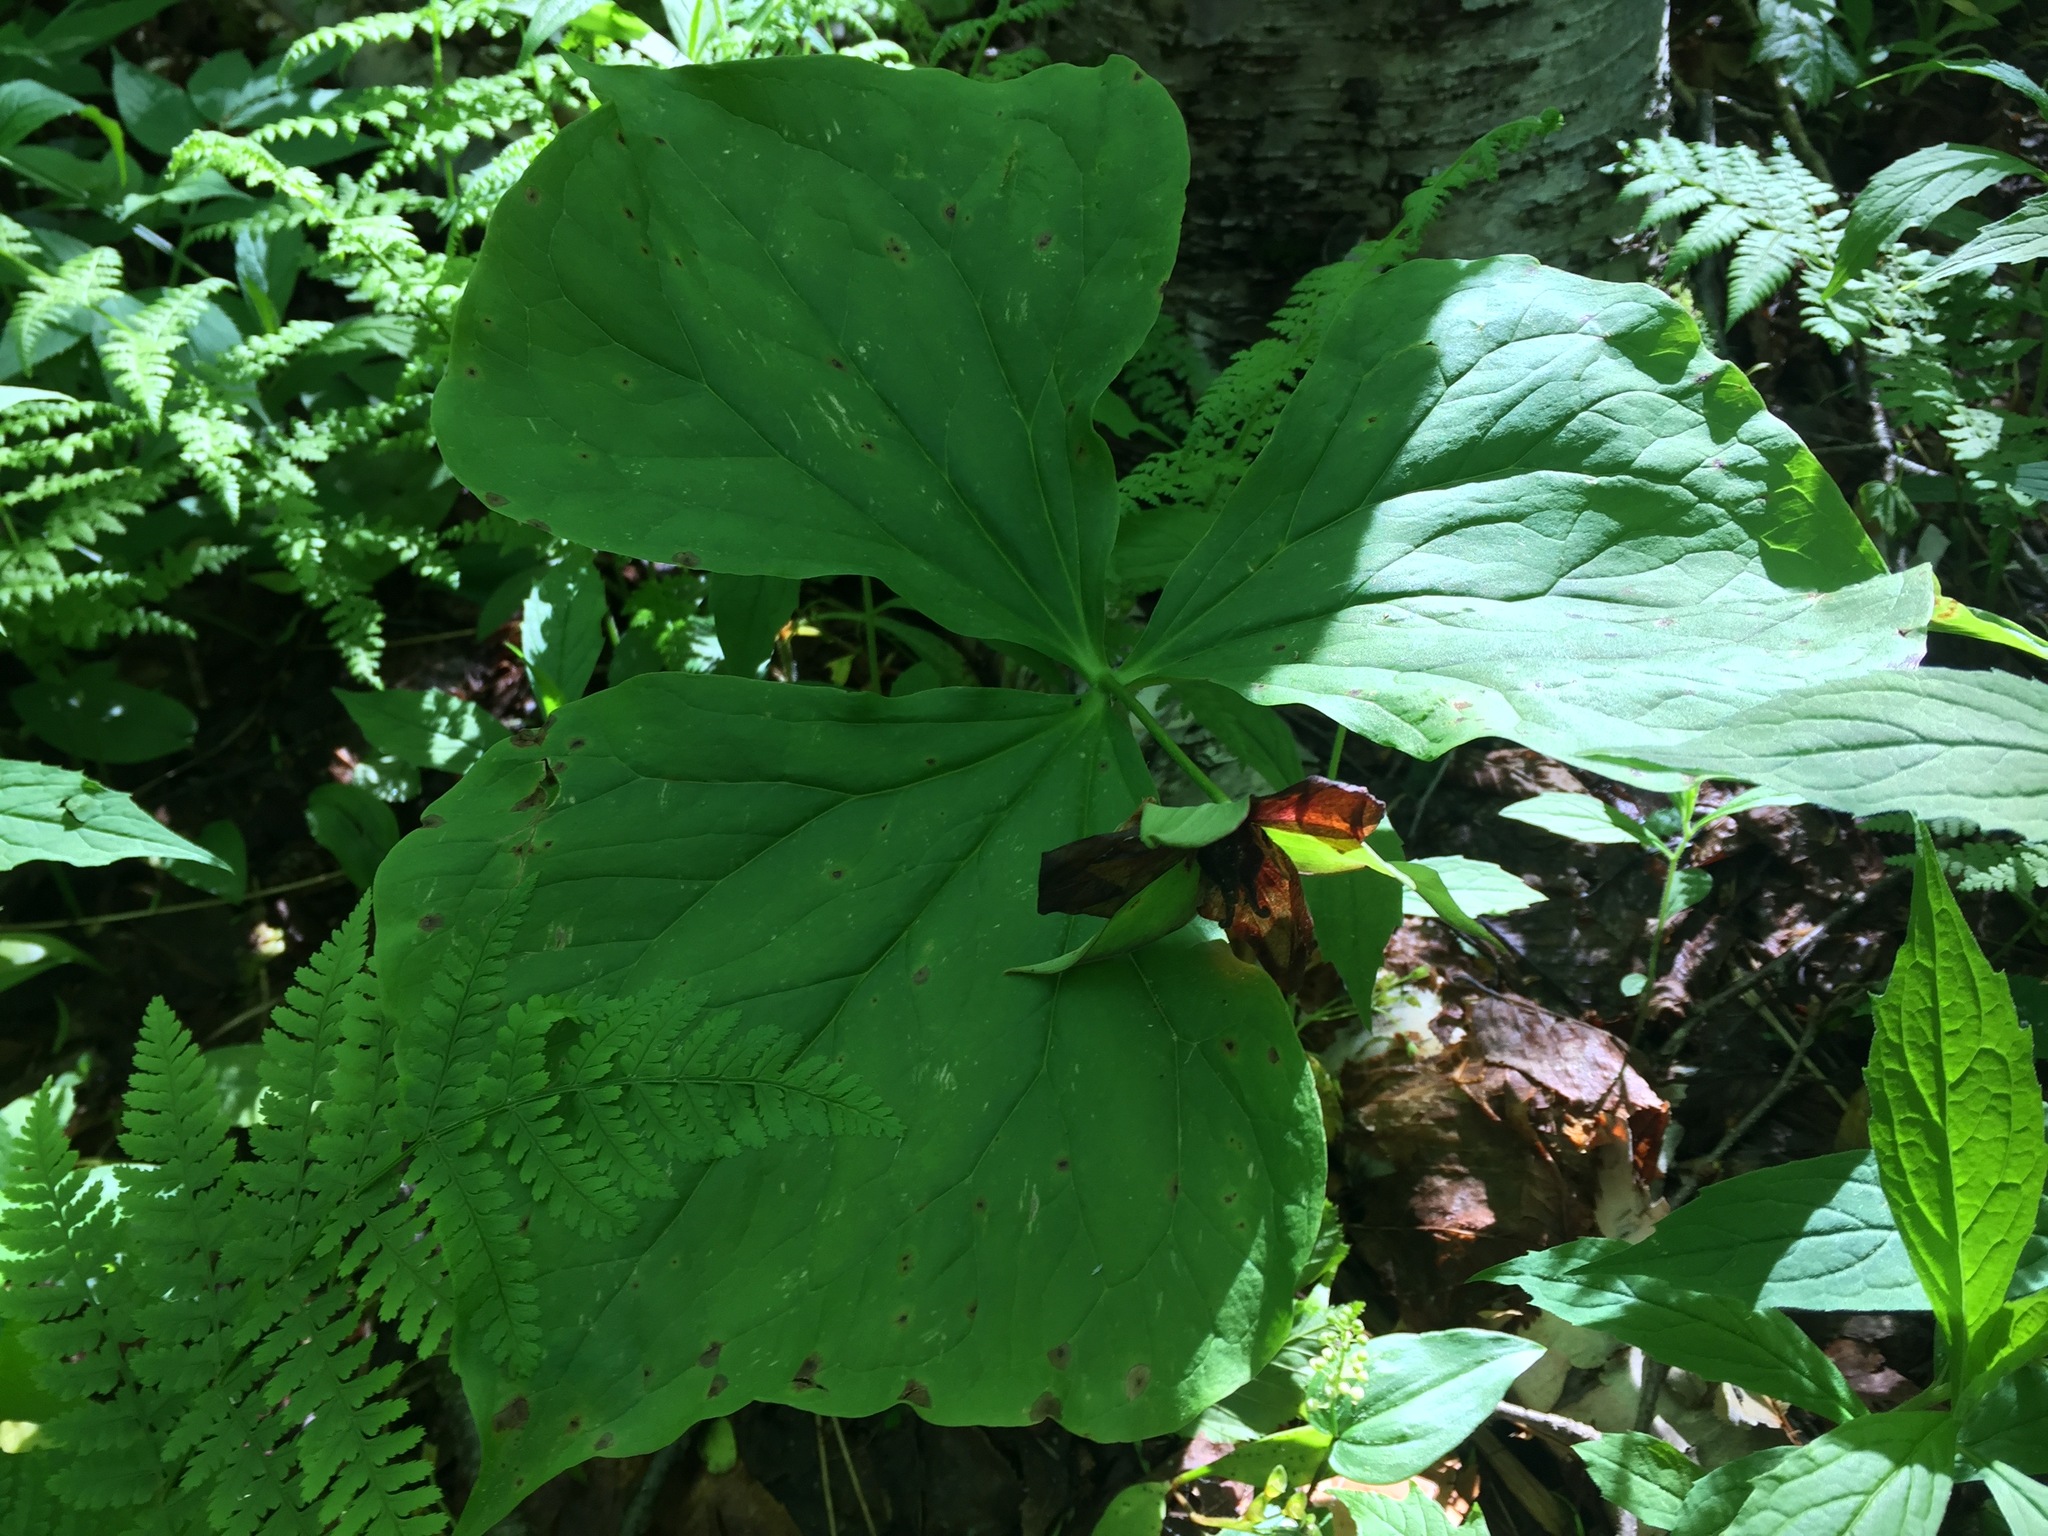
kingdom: Plantae
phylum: Tracheophyta
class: Liliopsida
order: Liliales
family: Melanthiaceae
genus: Trillium
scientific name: Trillium erectum
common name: Purple trillium
